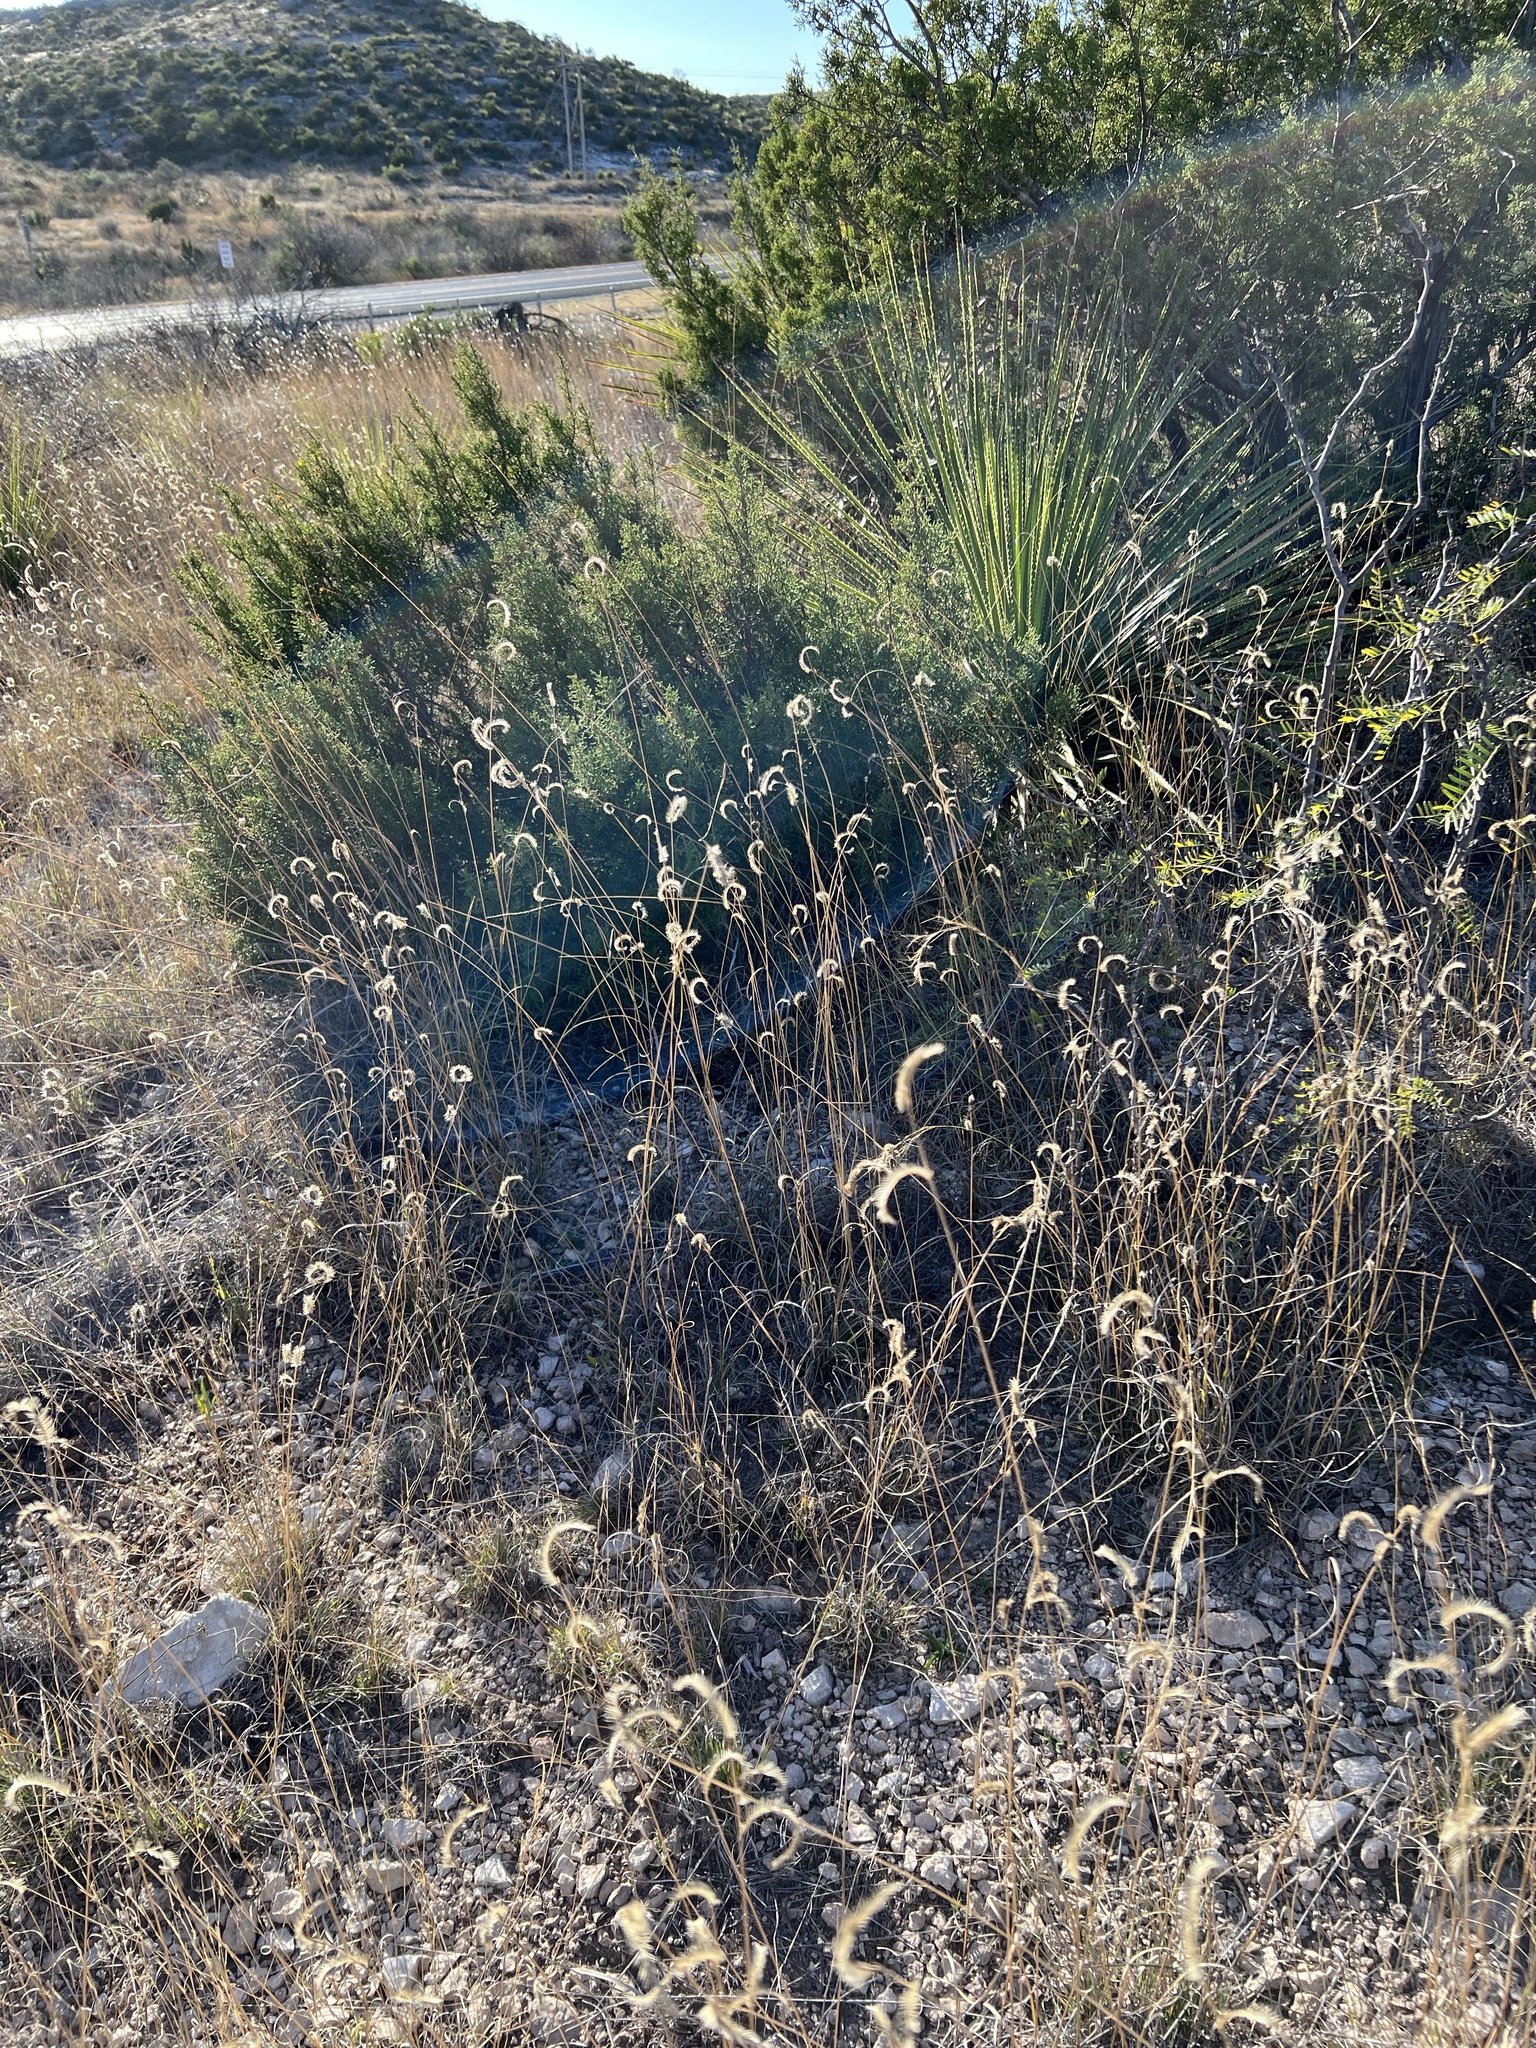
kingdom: Plantae
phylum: Tracheophyta
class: Liliopsida
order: Poales
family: Poaceae
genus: Bouteloua
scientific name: Bouteloua gracilis
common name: Blue grama
